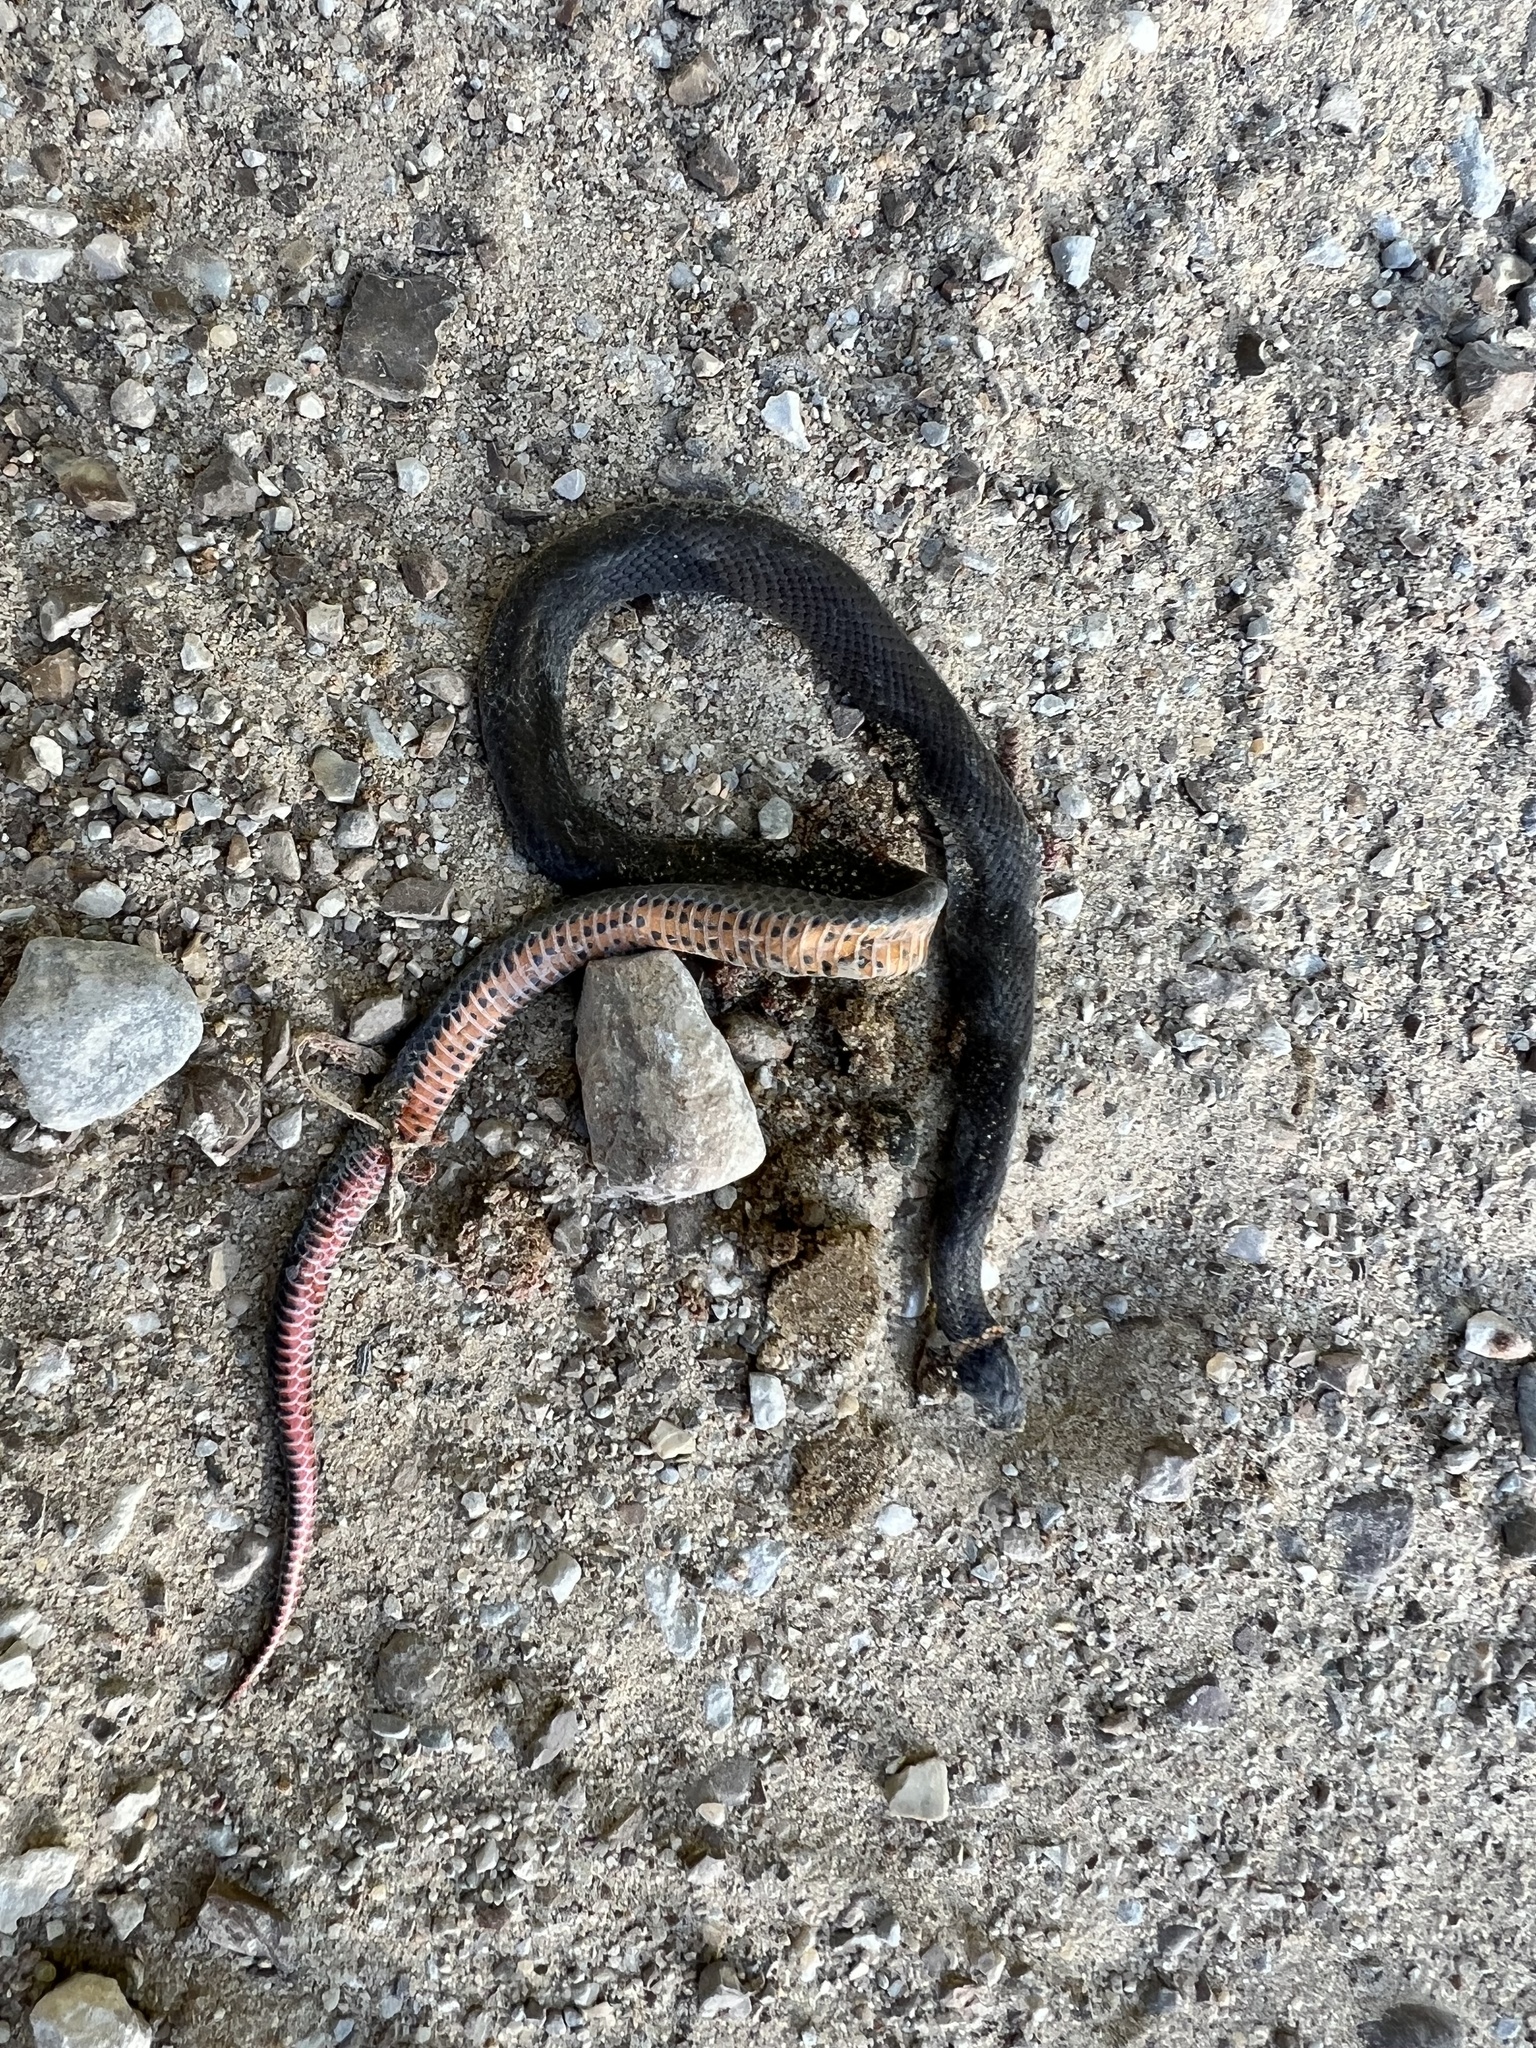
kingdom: Animalia
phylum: Chordata
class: Squamata
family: Colubridae
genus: Diadophis
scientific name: Diadophis punctatus
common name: Ringneck snake
